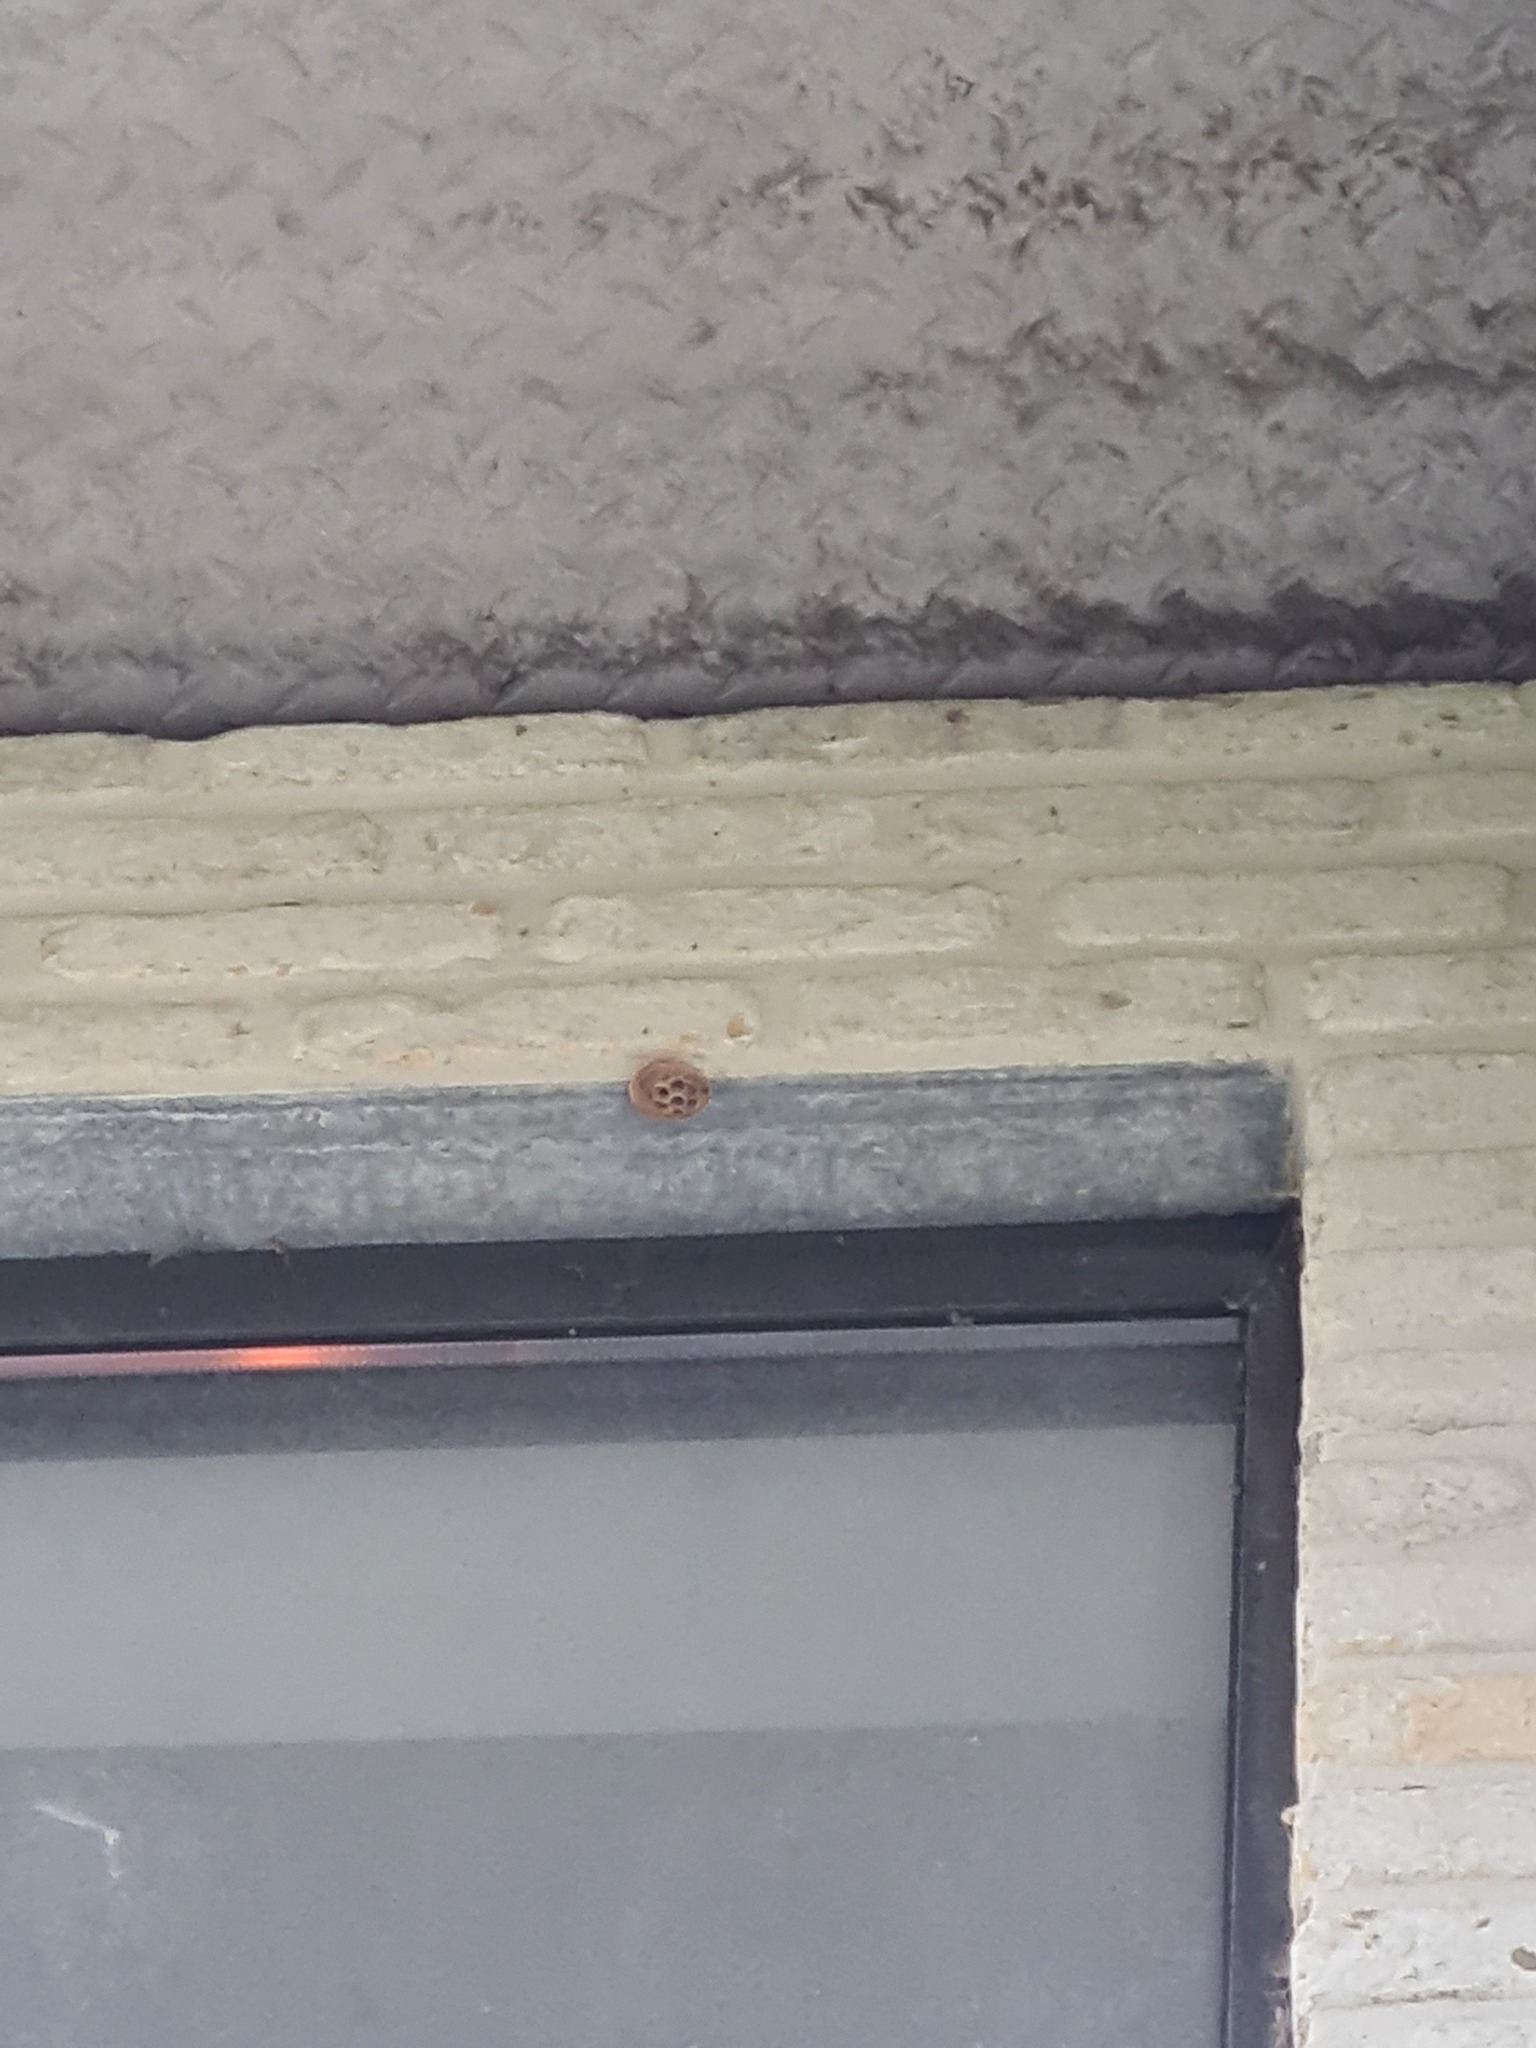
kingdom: Animalia
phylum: Arthropoda
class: Insecta
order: Hymenoptera
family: Vespidae
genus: Vespa
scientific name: Vespa velutina
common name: Asian hornet
